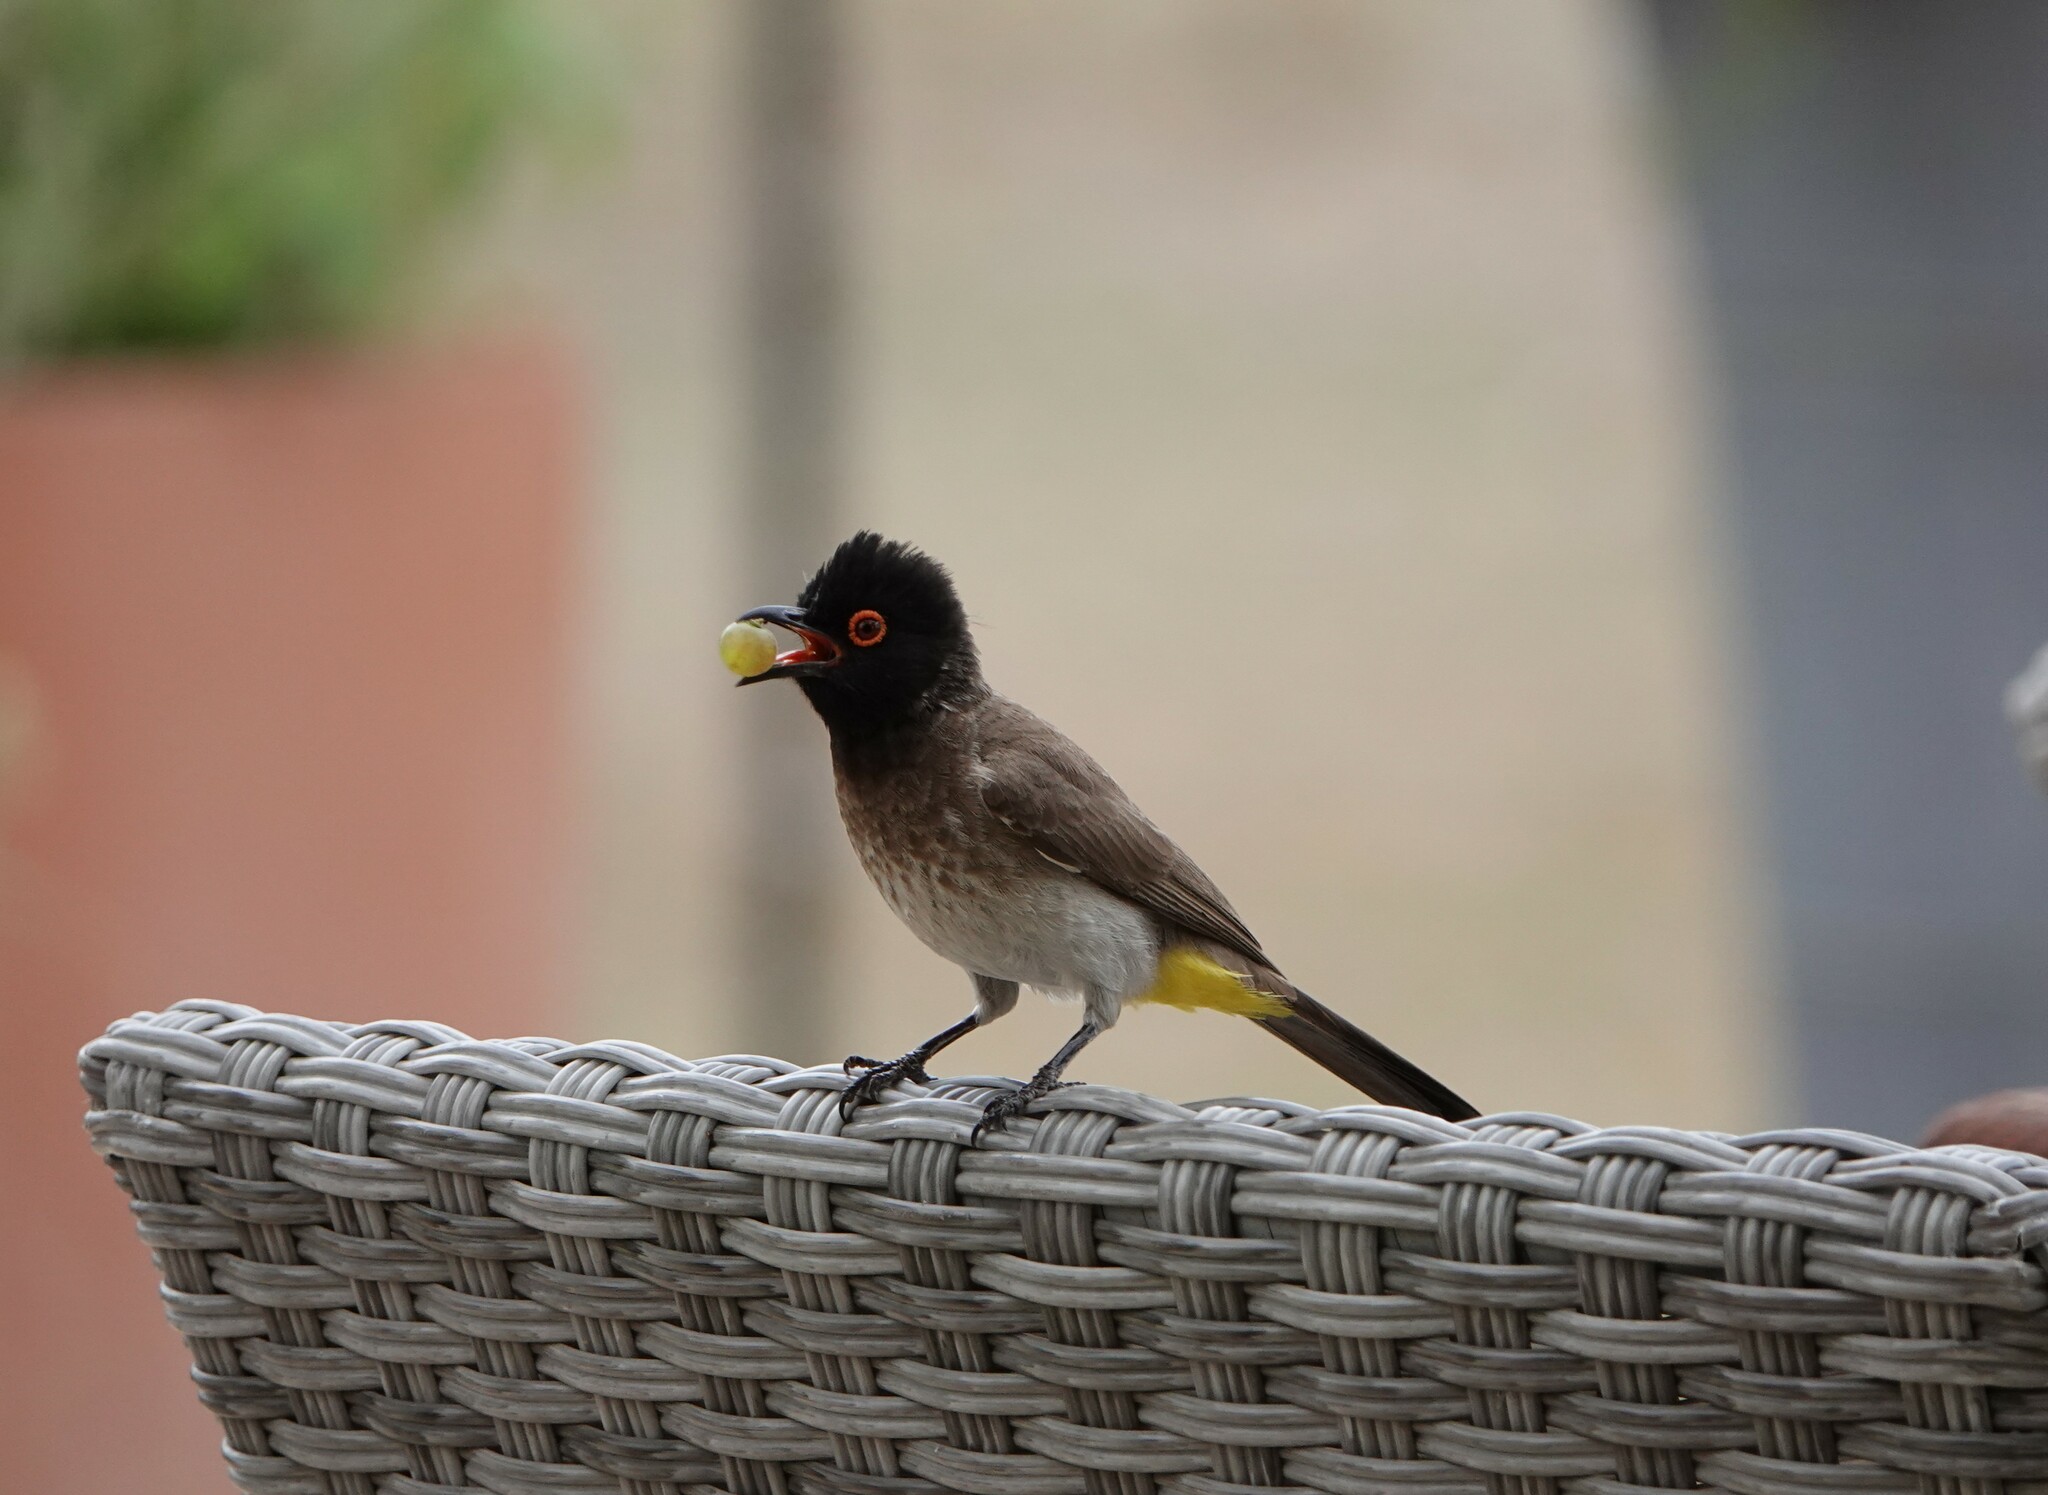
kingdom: Animalia
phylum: Chordata
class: Aves
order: Passeriformes
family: Pycnonotidae
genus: Pycnonotus
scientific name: Pycnonotus nigricans
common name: African red-eyed bulbul
